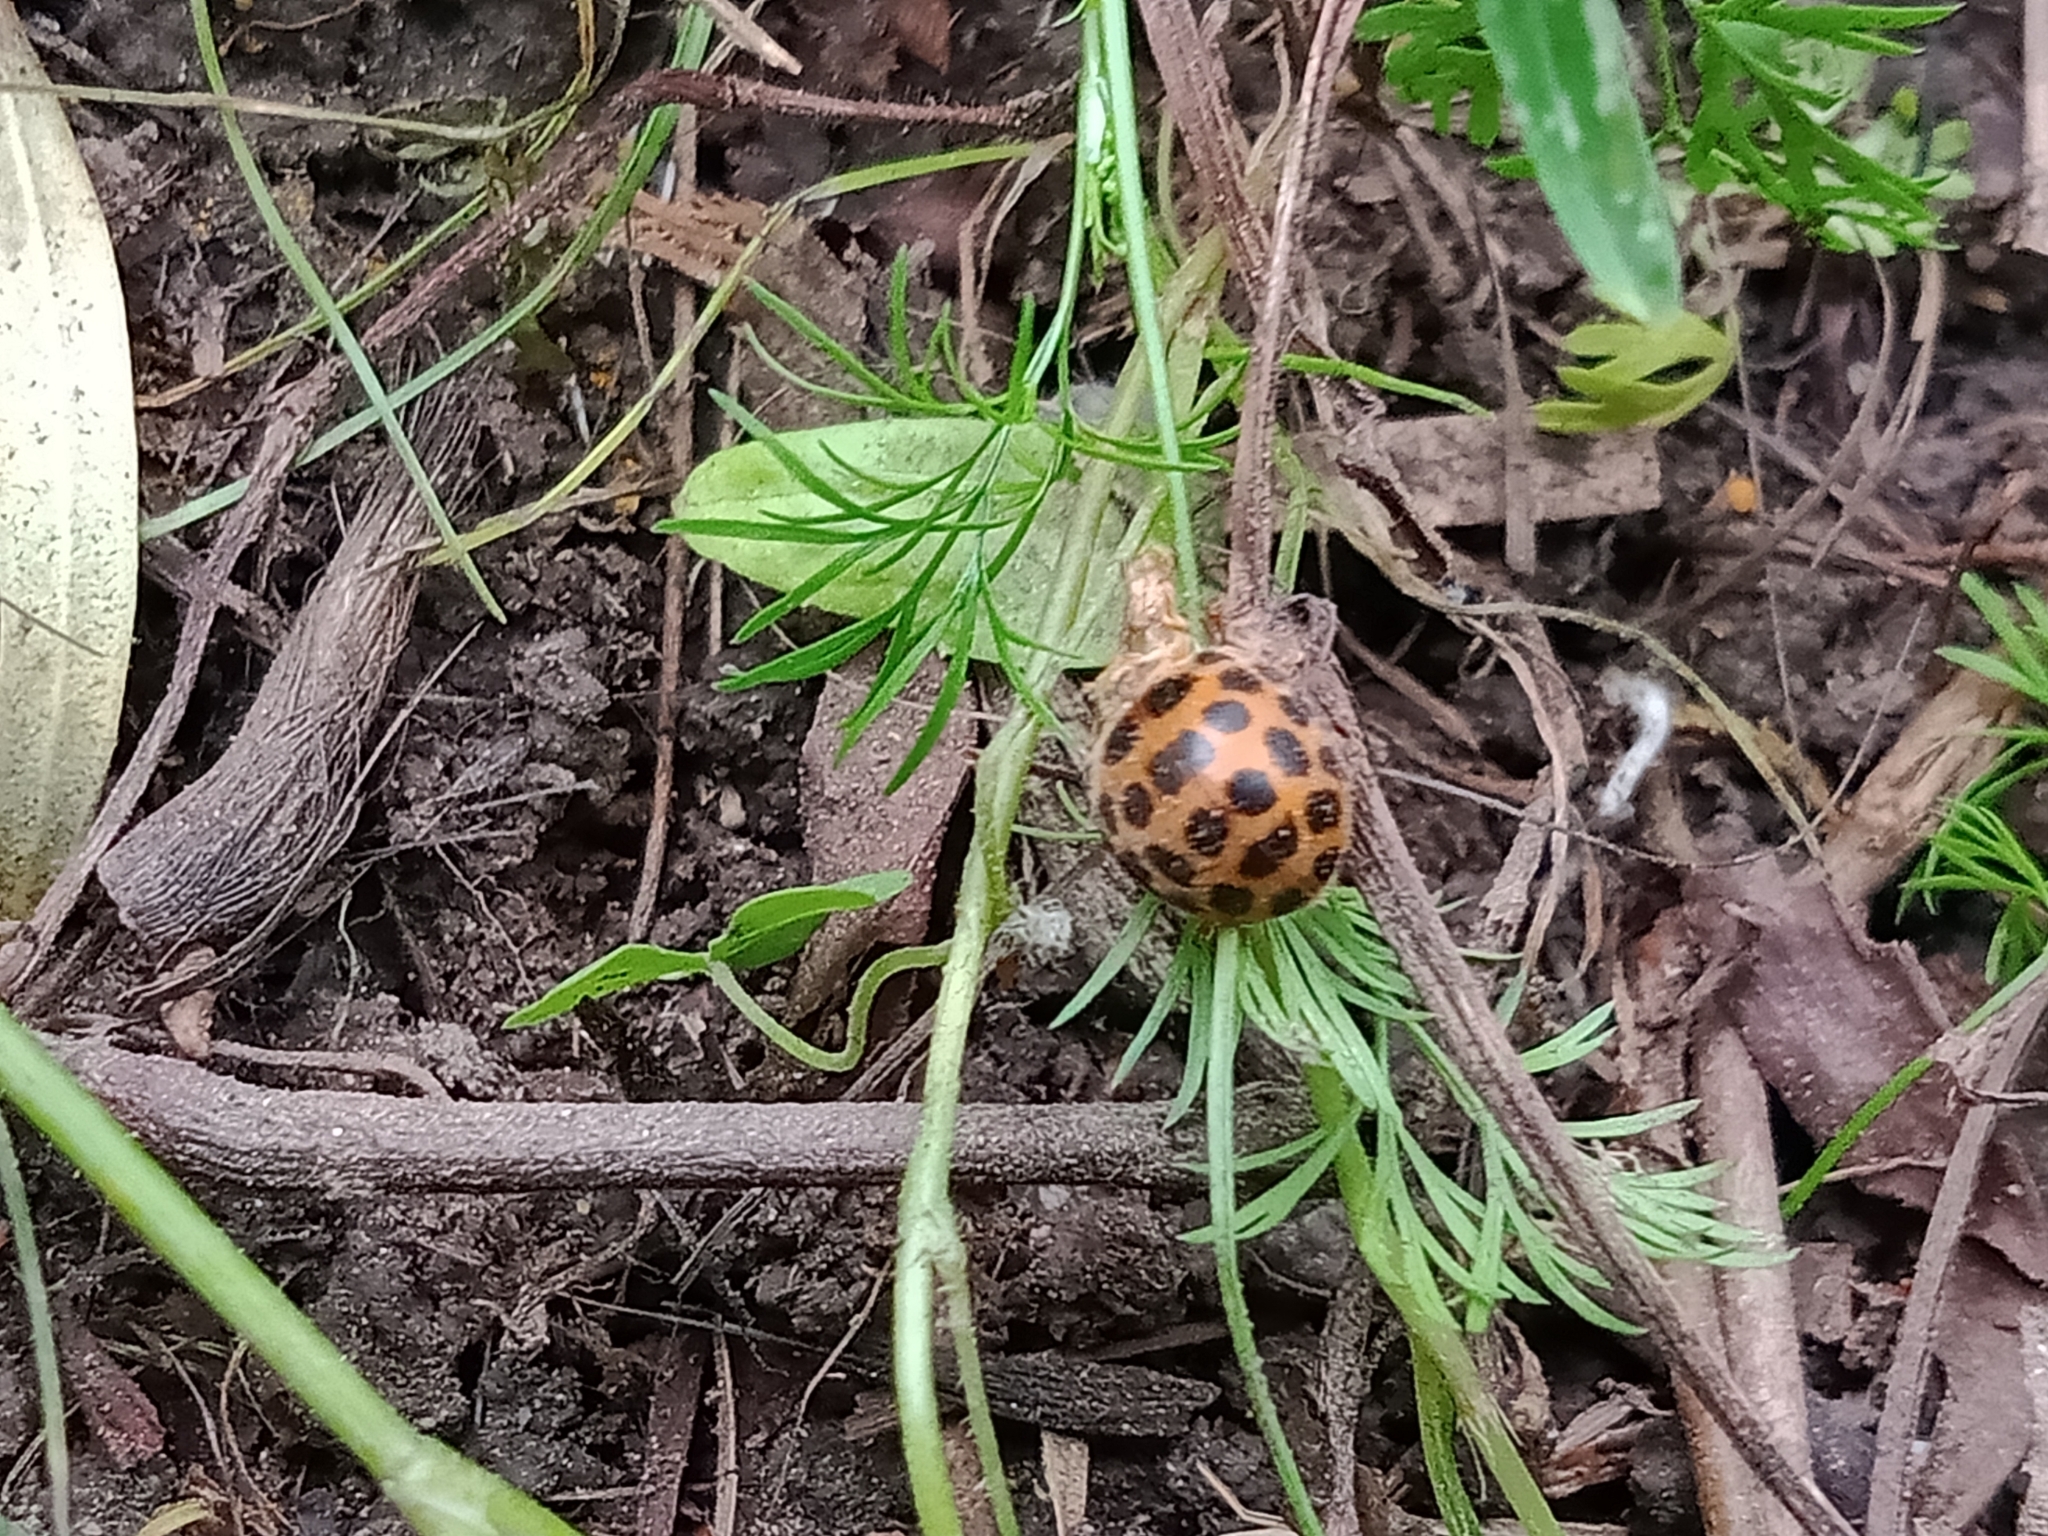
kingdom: Animalia
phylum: Arthropoda
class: Insecta
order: Coleoptera
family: Coccinellidae
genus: Henosepilachna
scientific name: Henosepilachna vigintioctopunctata
